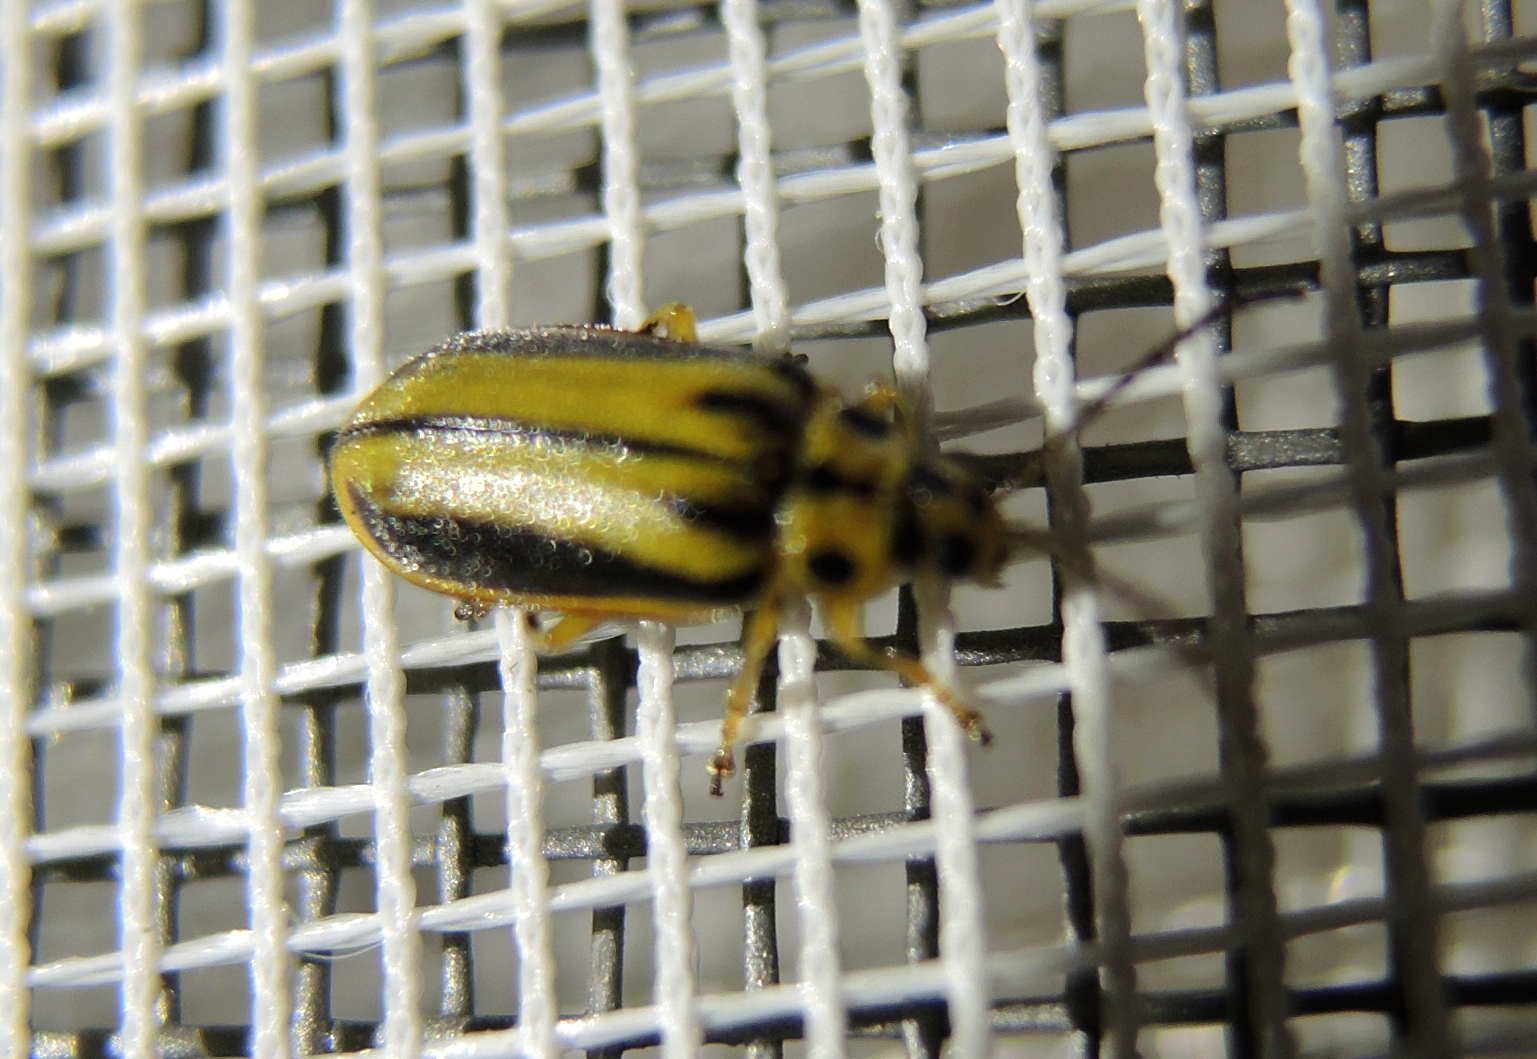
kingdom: Animalia
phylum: Arthropoda
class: Insecta
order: Coleoptera
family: Chrysomelidae
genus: Xanthogaleruca
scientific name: Xanthogaleruca luteola
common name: Elm leaf beetle
